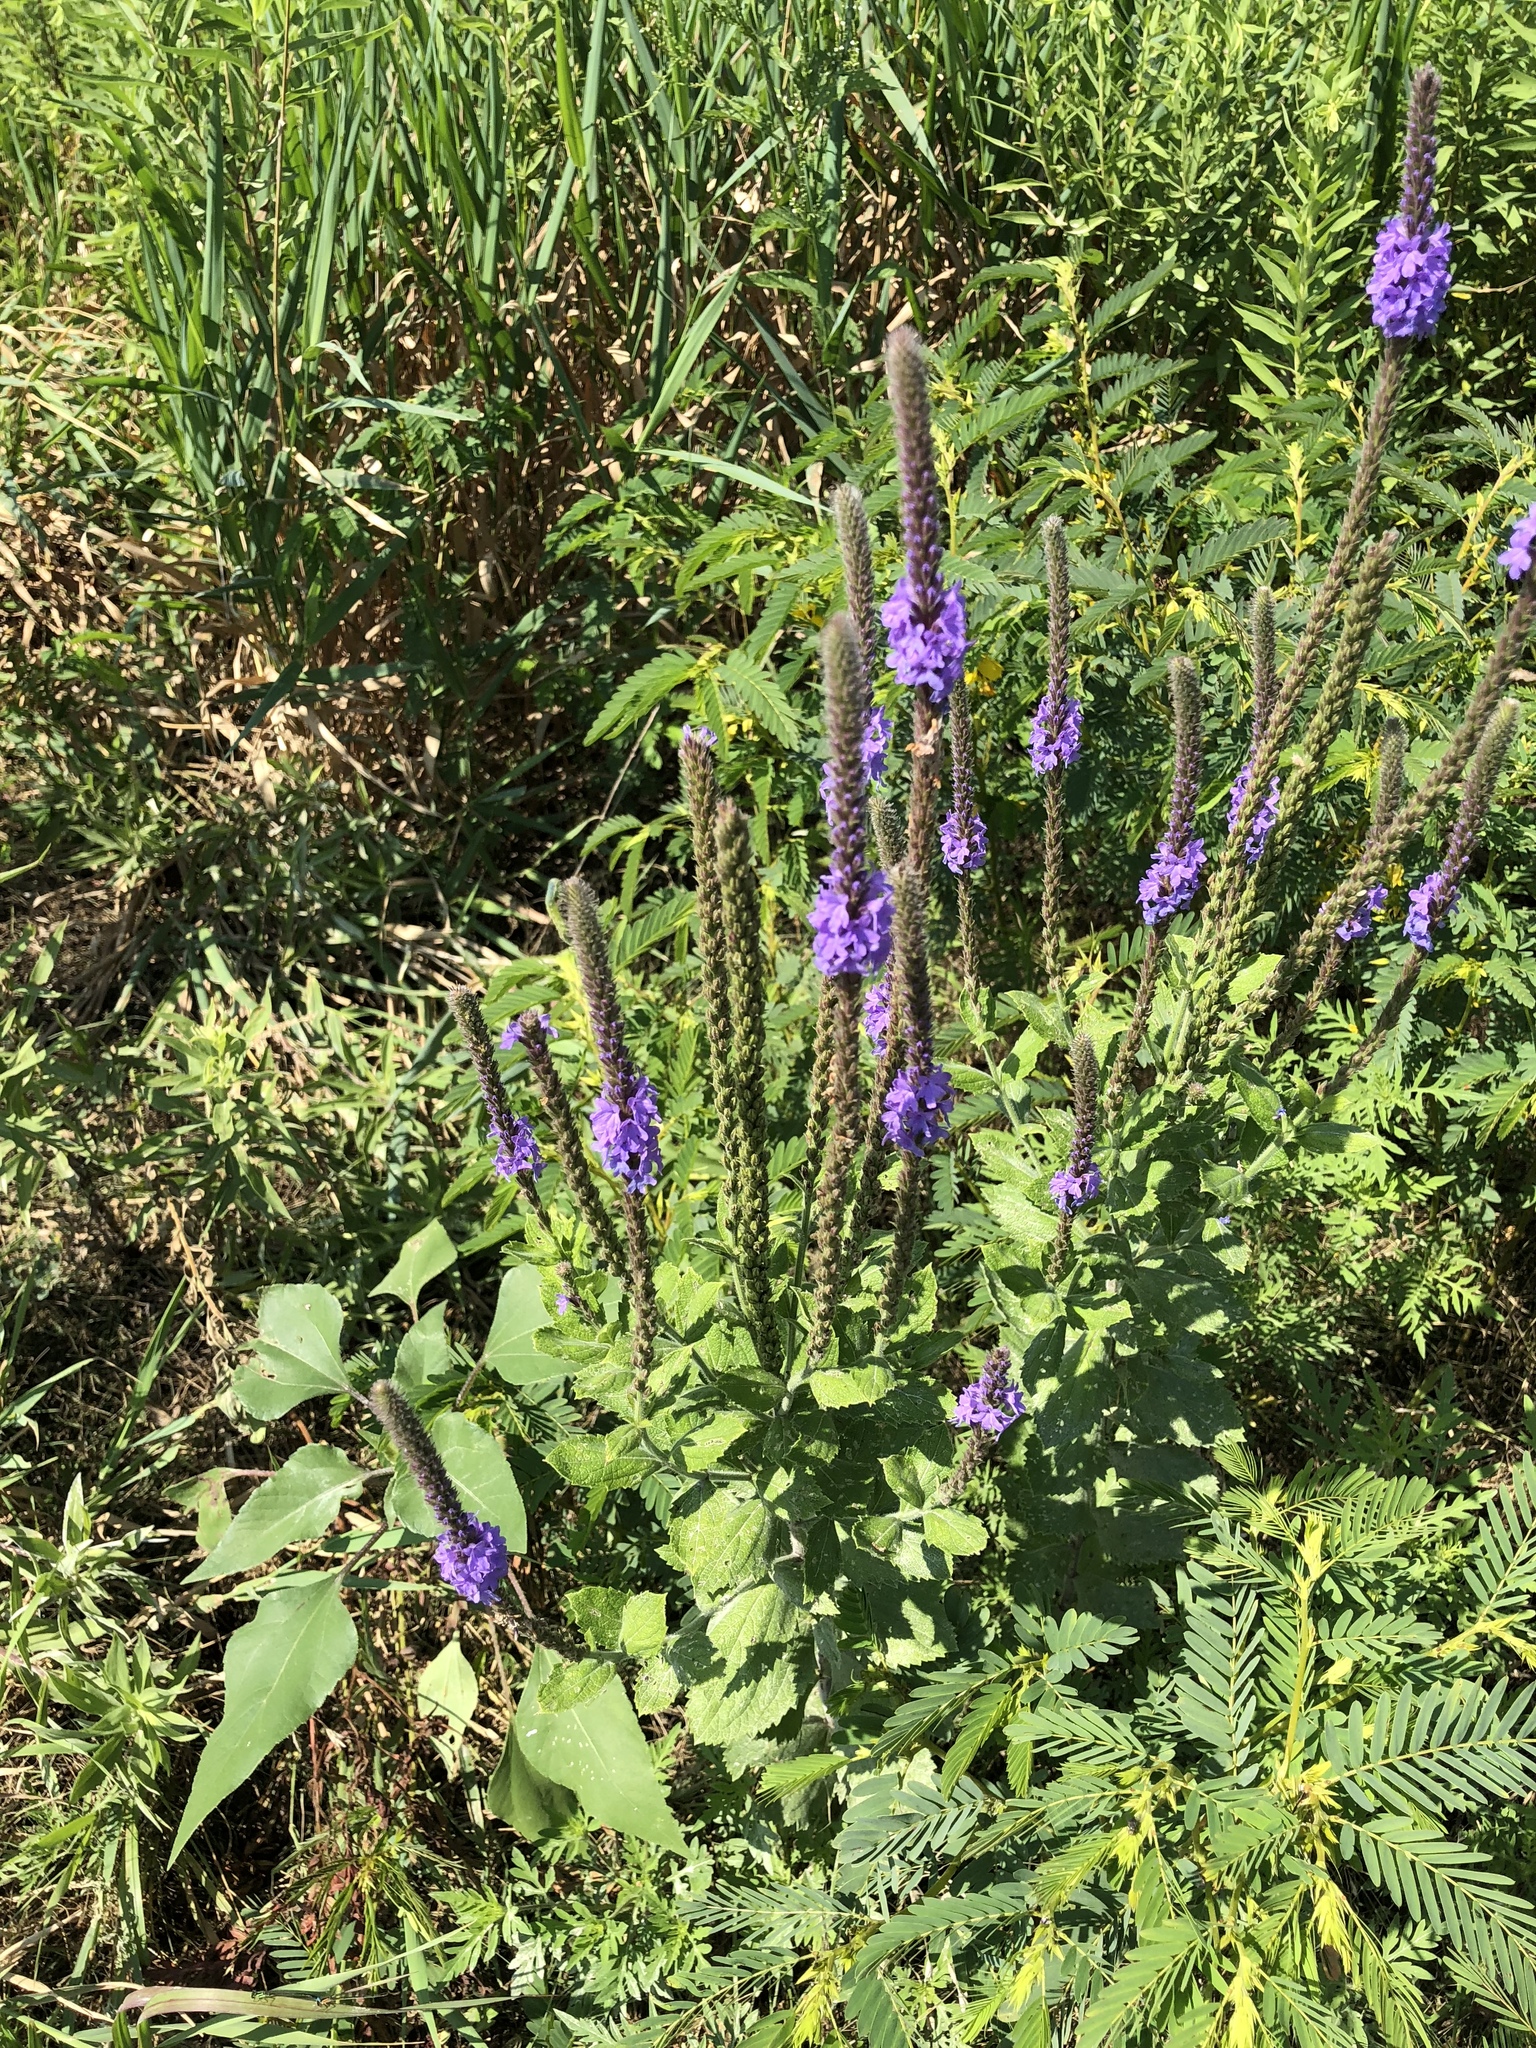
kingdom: Plantae
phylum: Tracheophyta
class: Magnoliopsida
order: Lamiales
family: Verbenaceae
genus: Verbena
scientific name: Verbena stricta
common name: Hoary vervain
